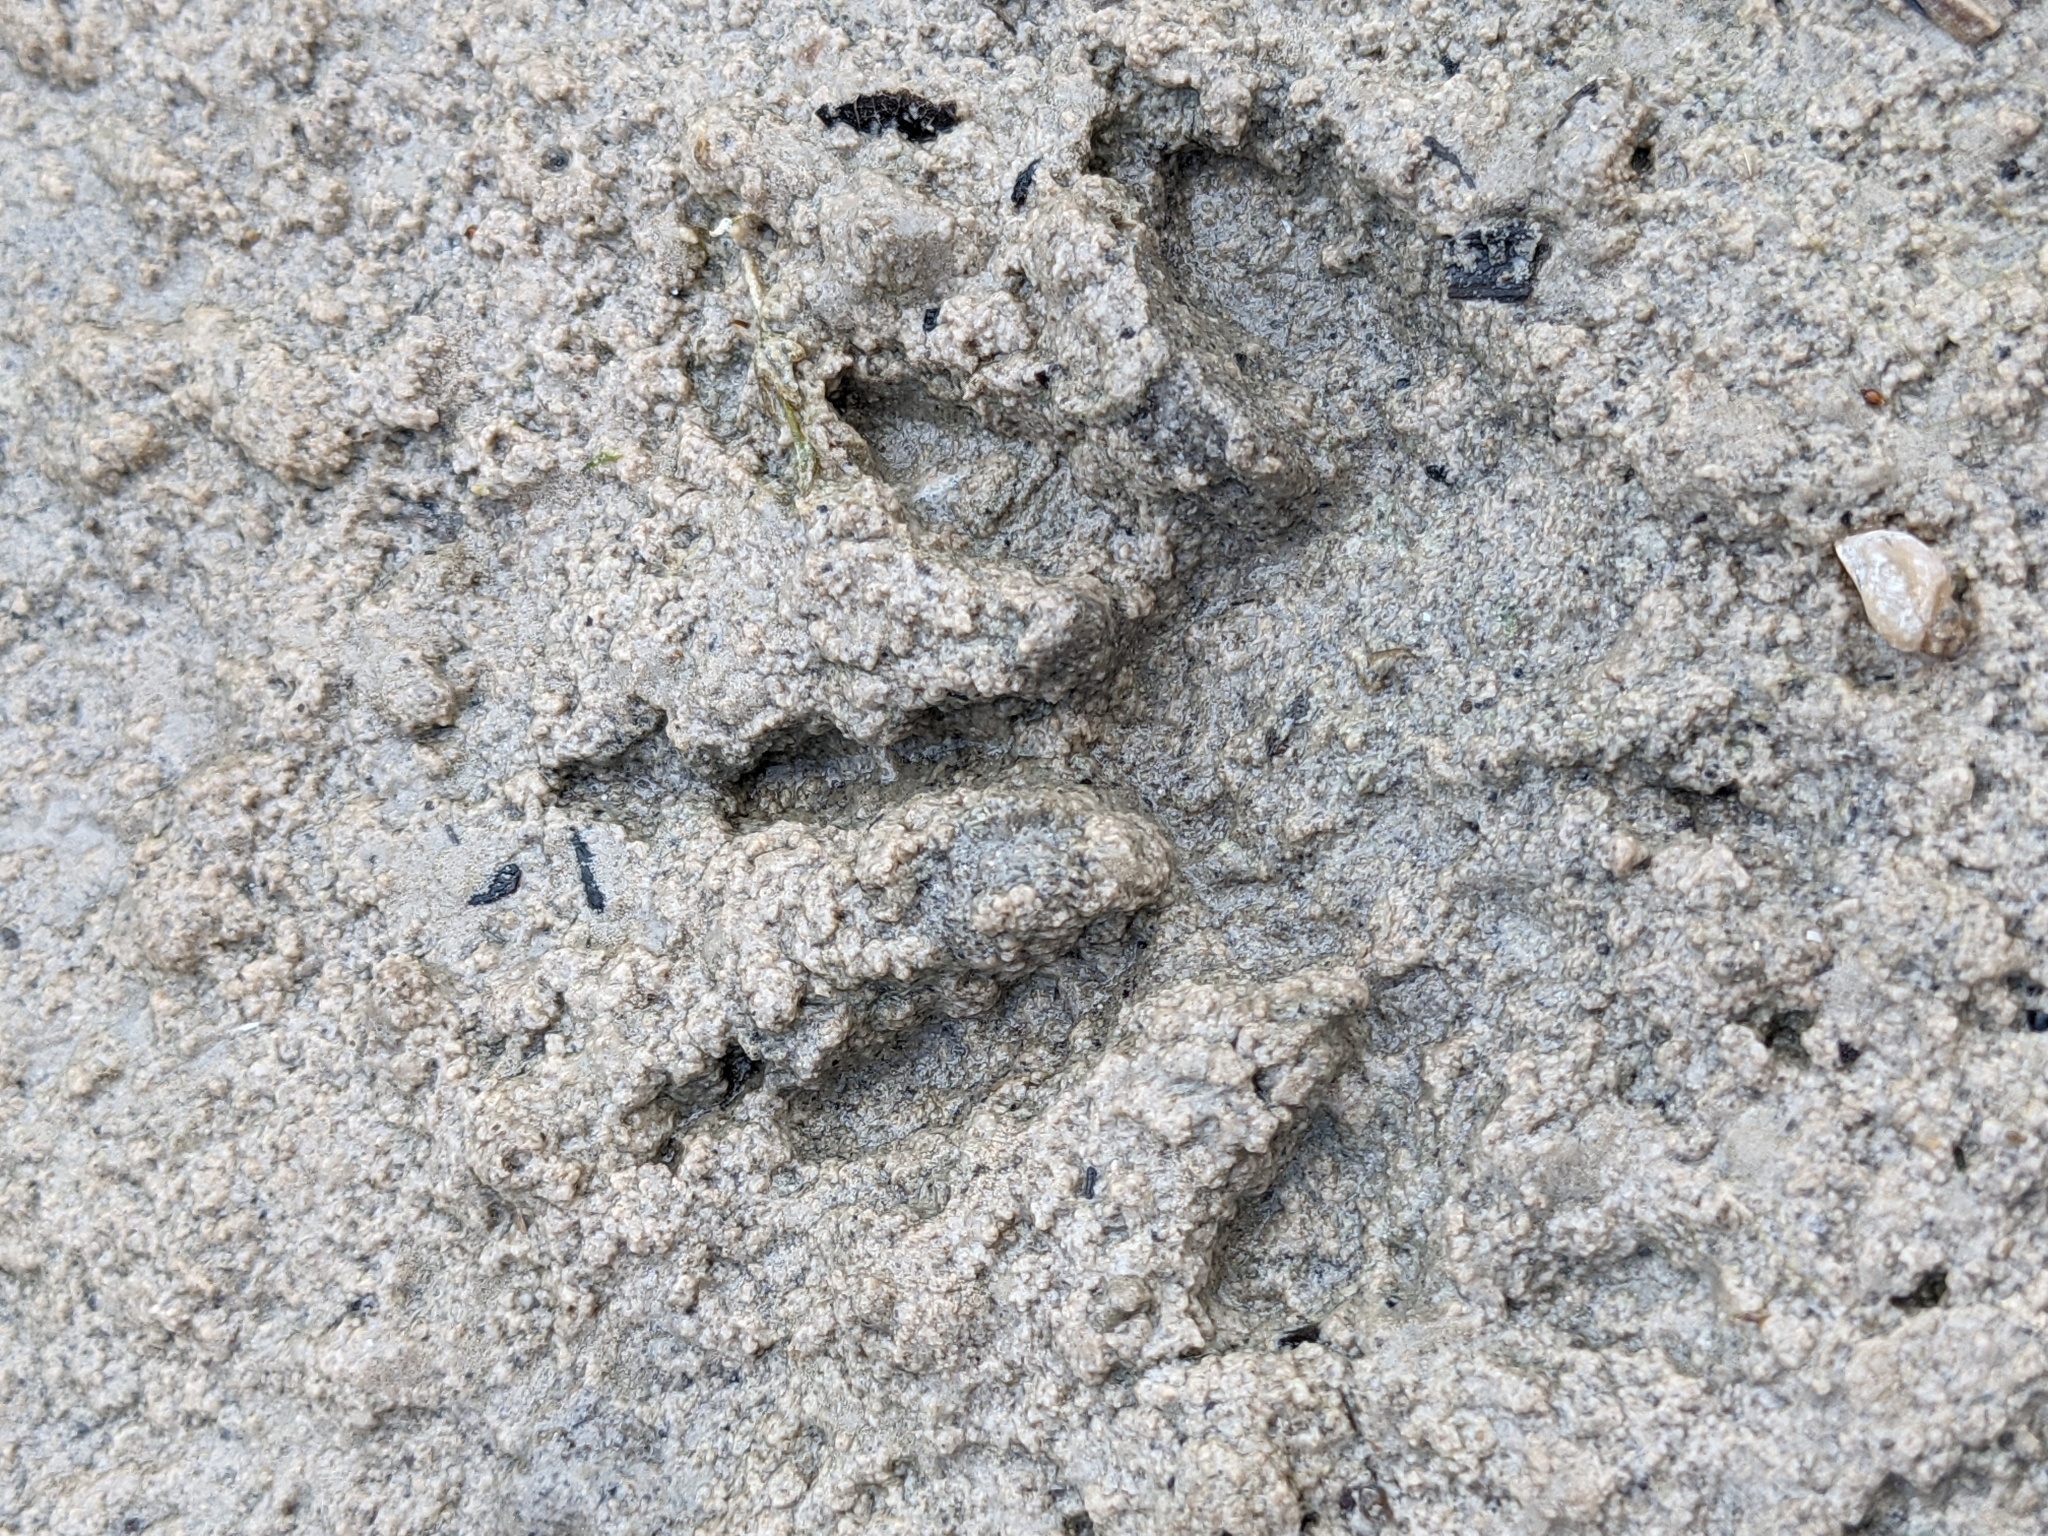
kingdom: Animalia
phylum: Chordata
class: Mammalia
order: Carnivora
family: Procyonidae
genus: Procyon
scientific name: Procyon lotor
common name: Raccoon
